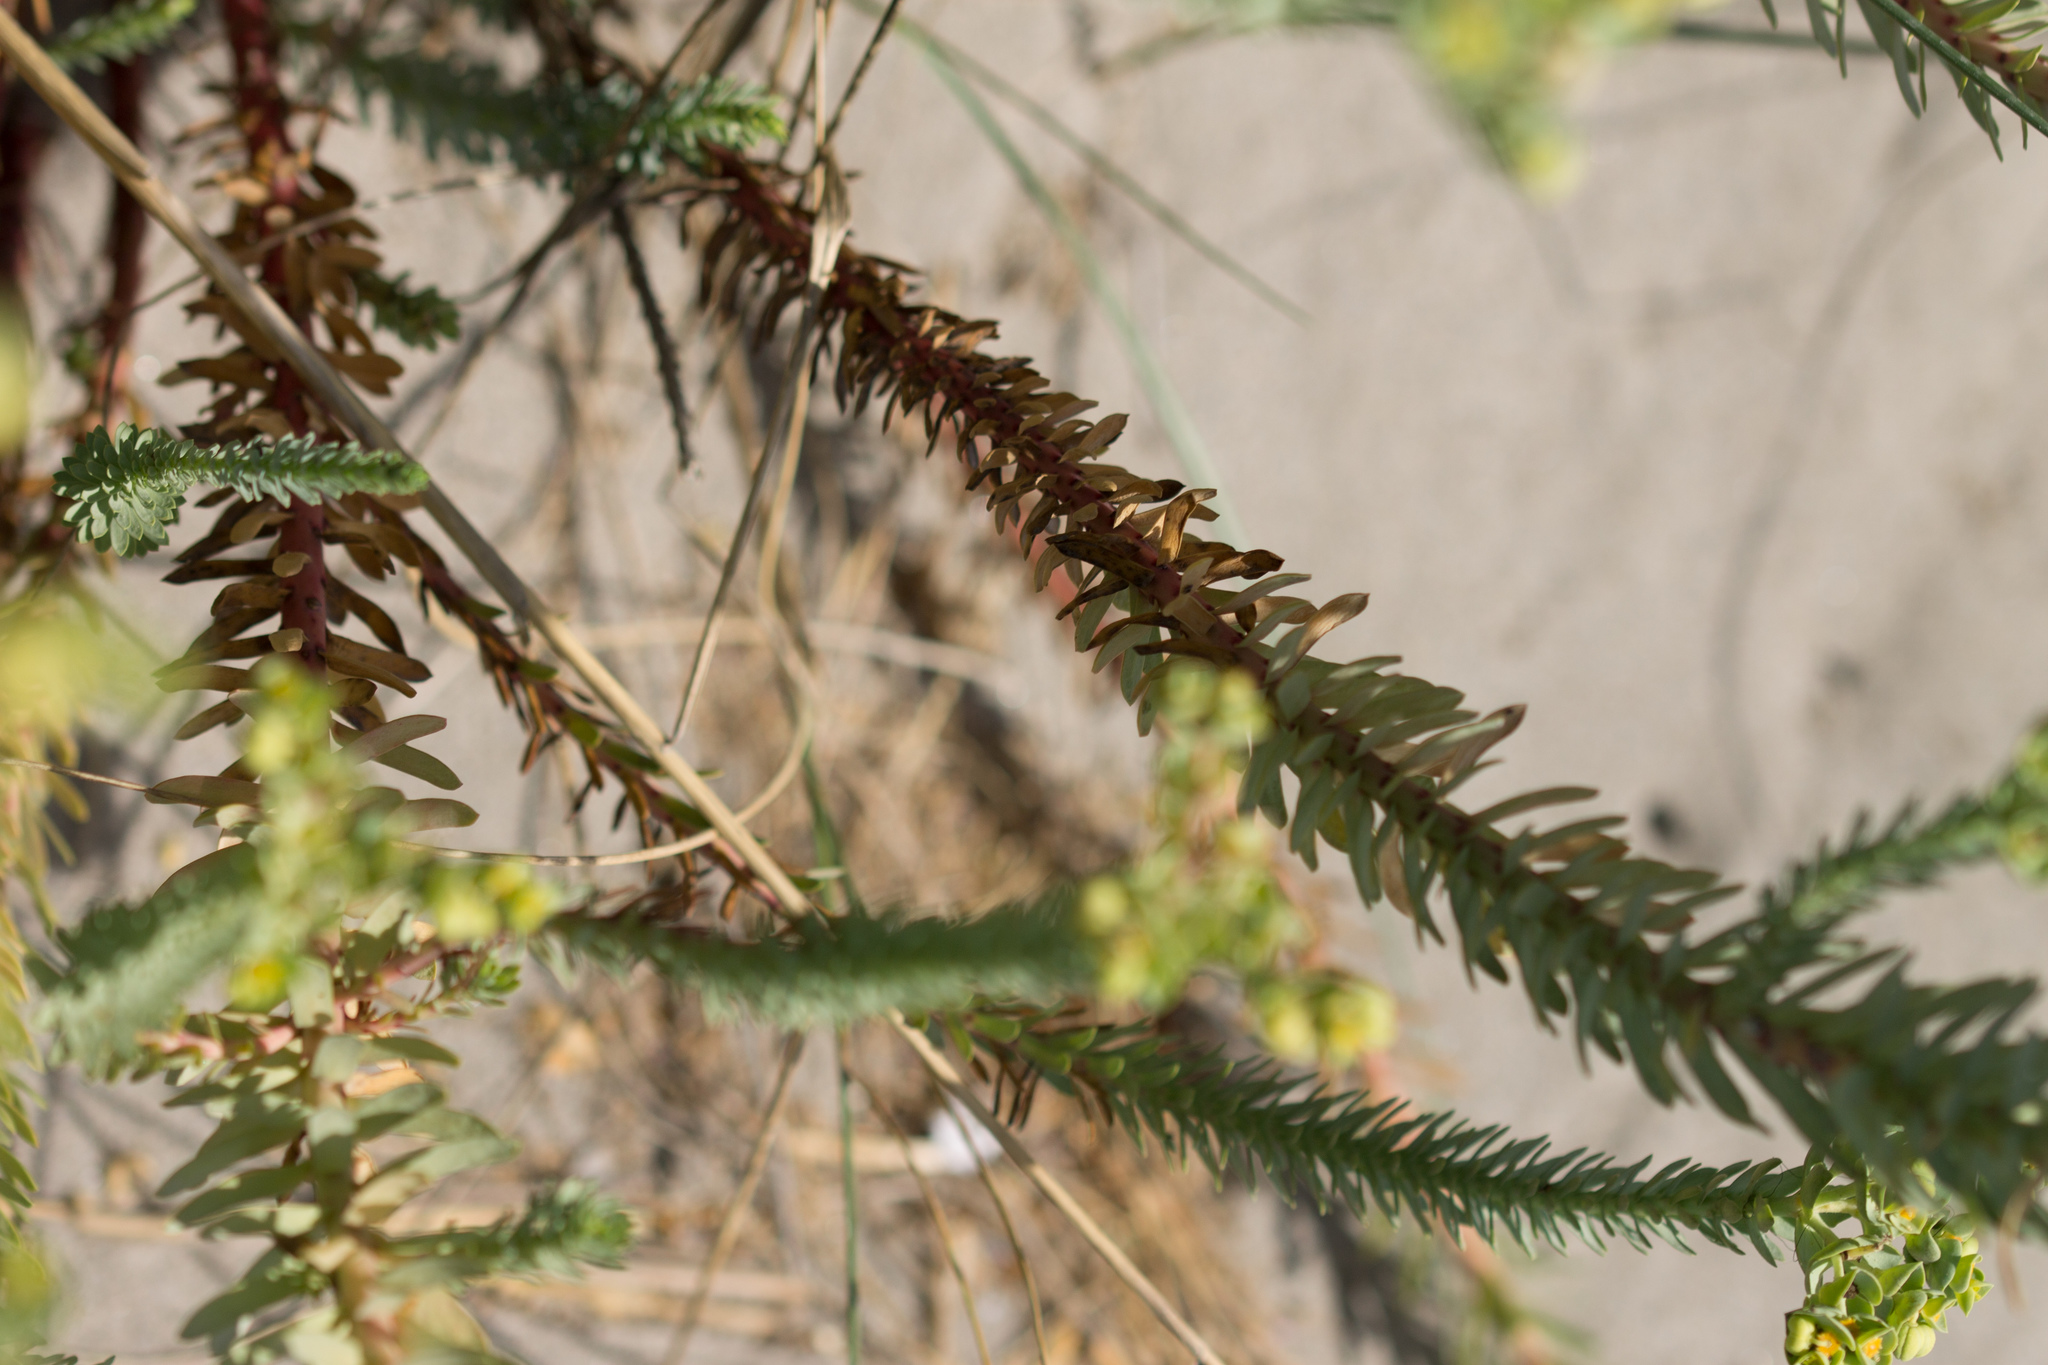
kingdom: Plantae
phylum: Tracheophyta
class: Magnoliopsida
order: Malpighiales
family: Euphorbiaceae
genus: Euphorbia
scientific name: Euphorbia paralias
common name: Sea spurge
